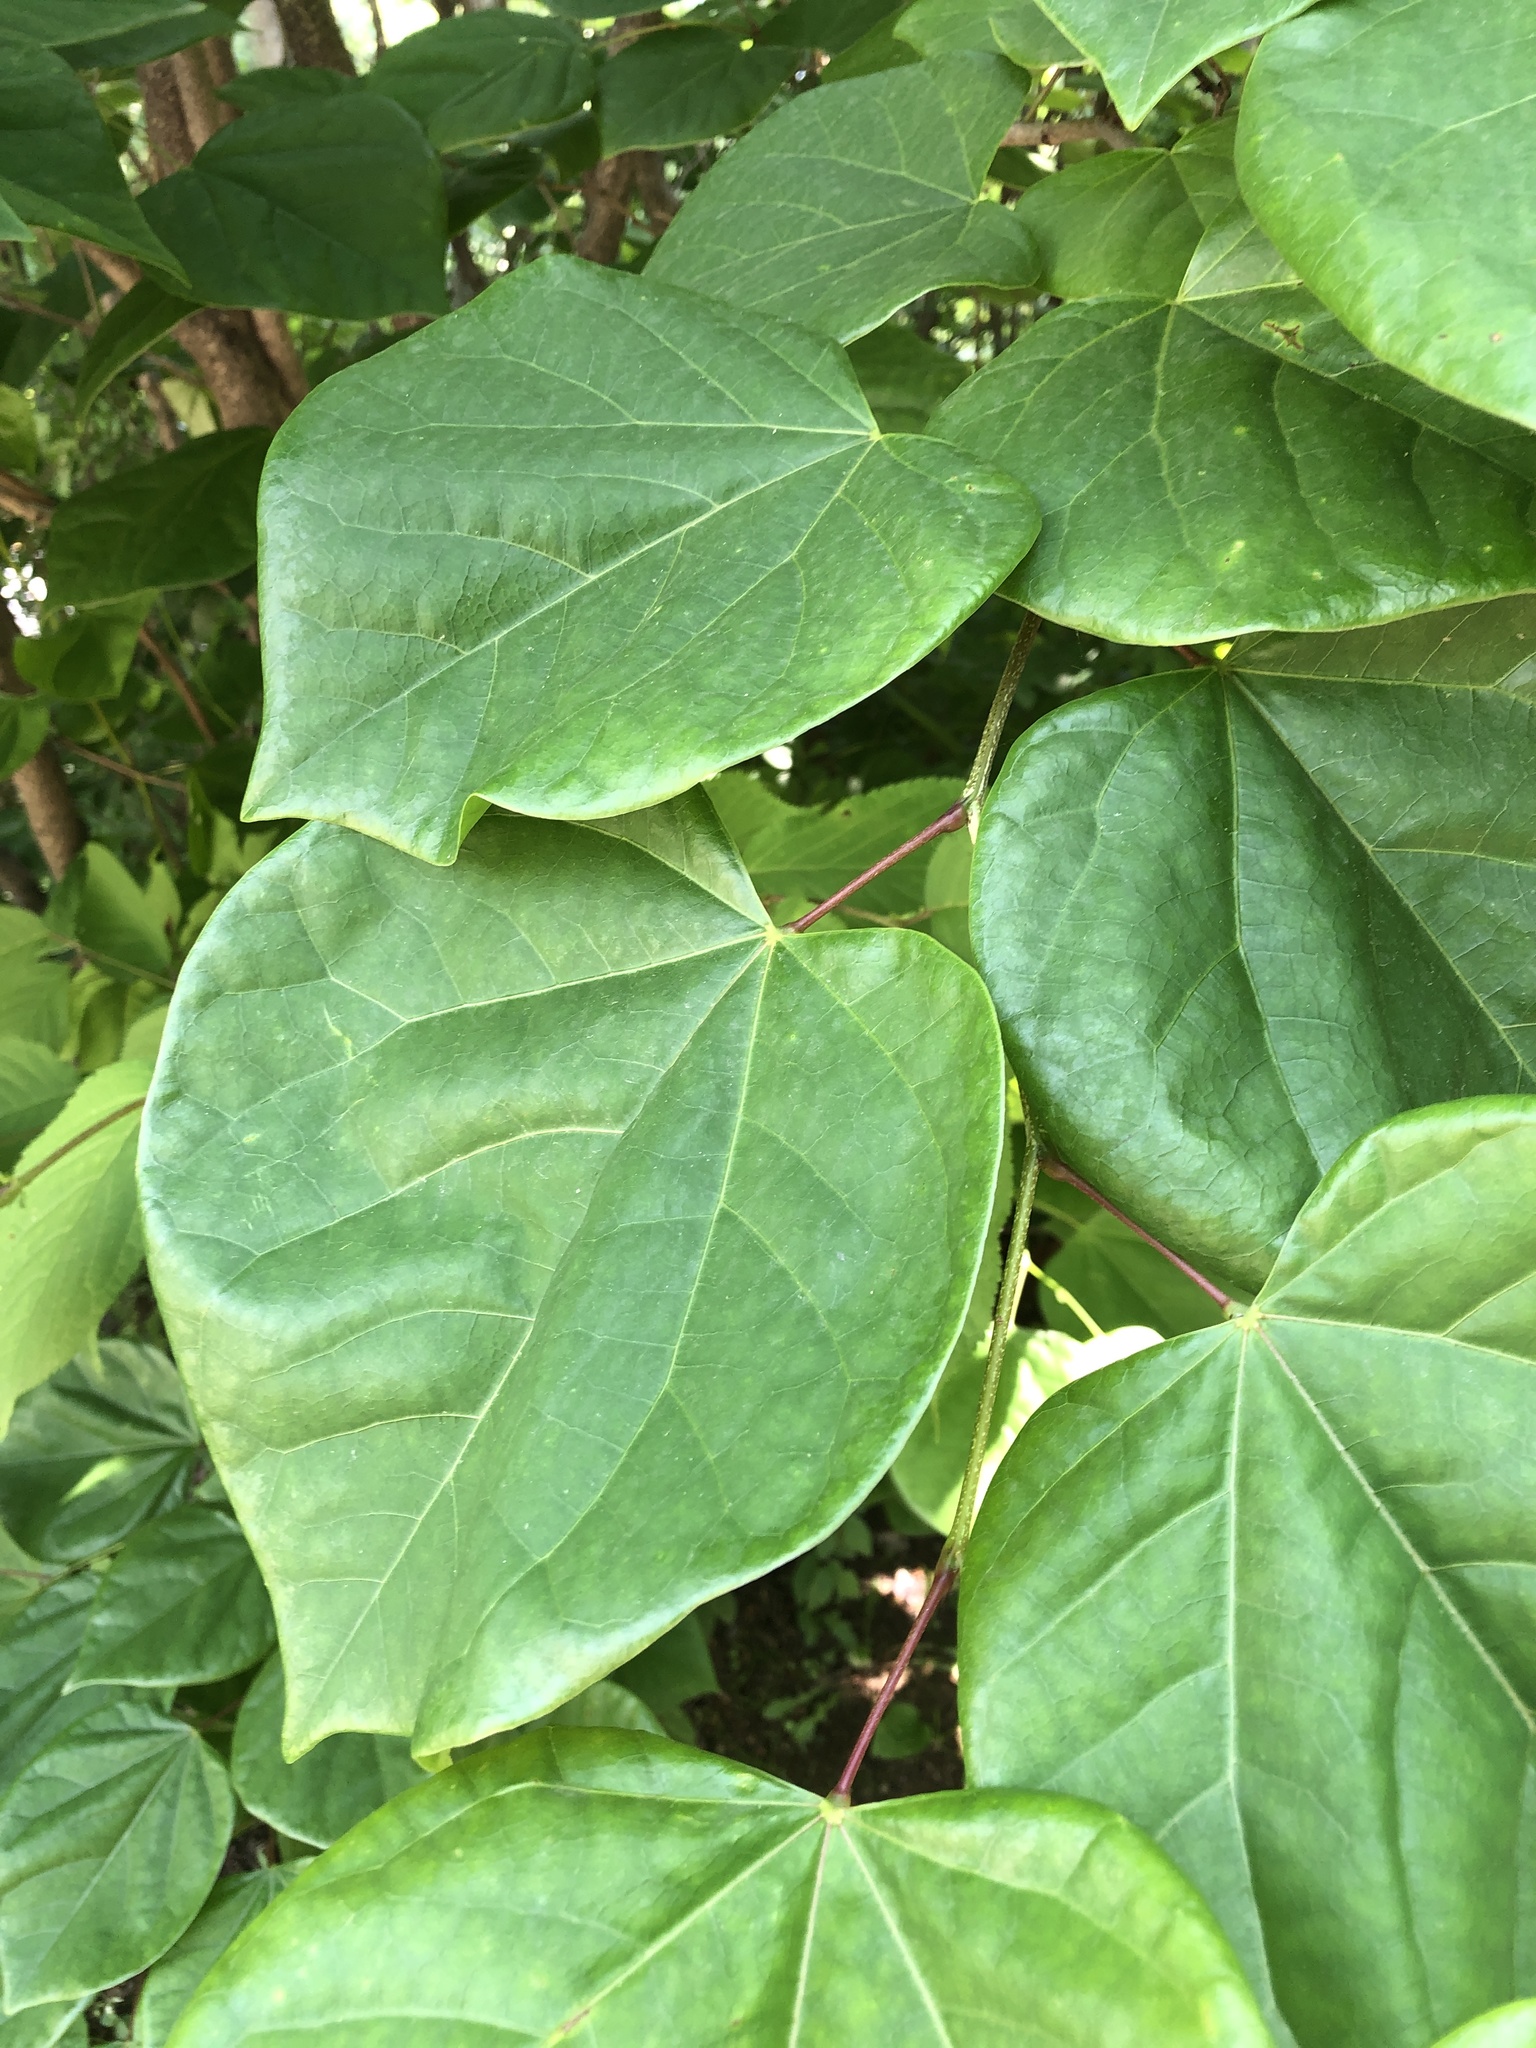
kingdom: Plantae
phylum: Tracheophyta
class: Magnoliopsida
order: Fabales
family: Fabaceae
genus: Cercis
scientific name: Cercis chinensis
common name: Chinese redbud
